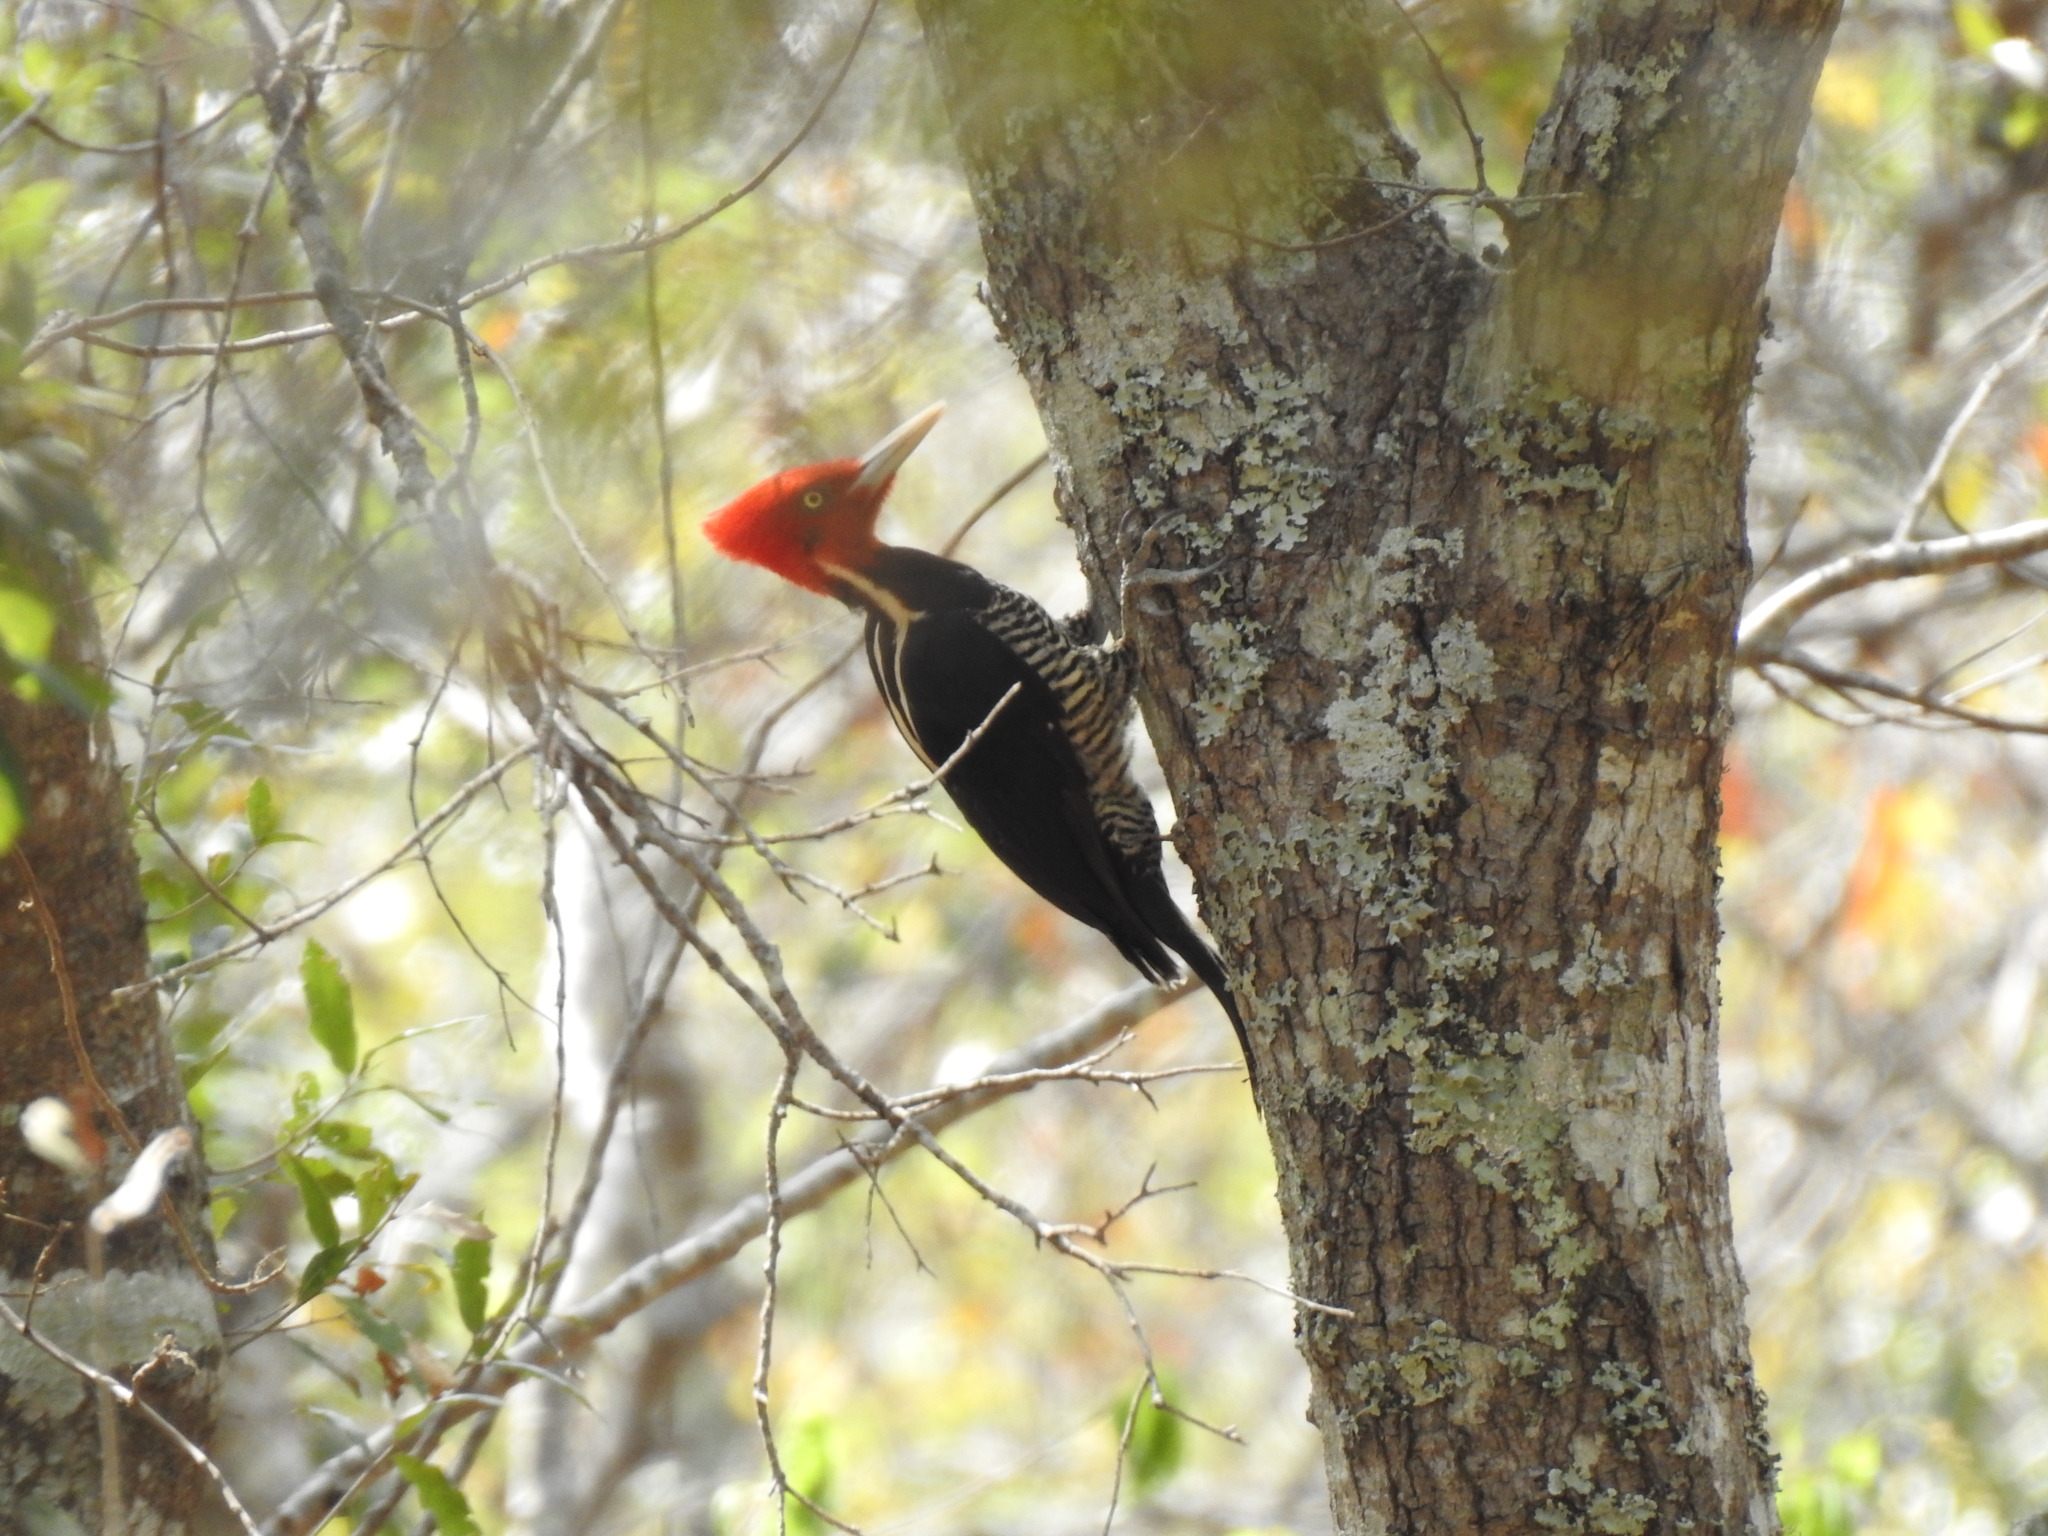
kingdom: Animalia
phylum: Chordata
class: Aves
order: Piciformes
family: Picidae
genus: Campephilus
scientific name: Campephilus guatemalensis
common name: Pale-billed woodpecker
